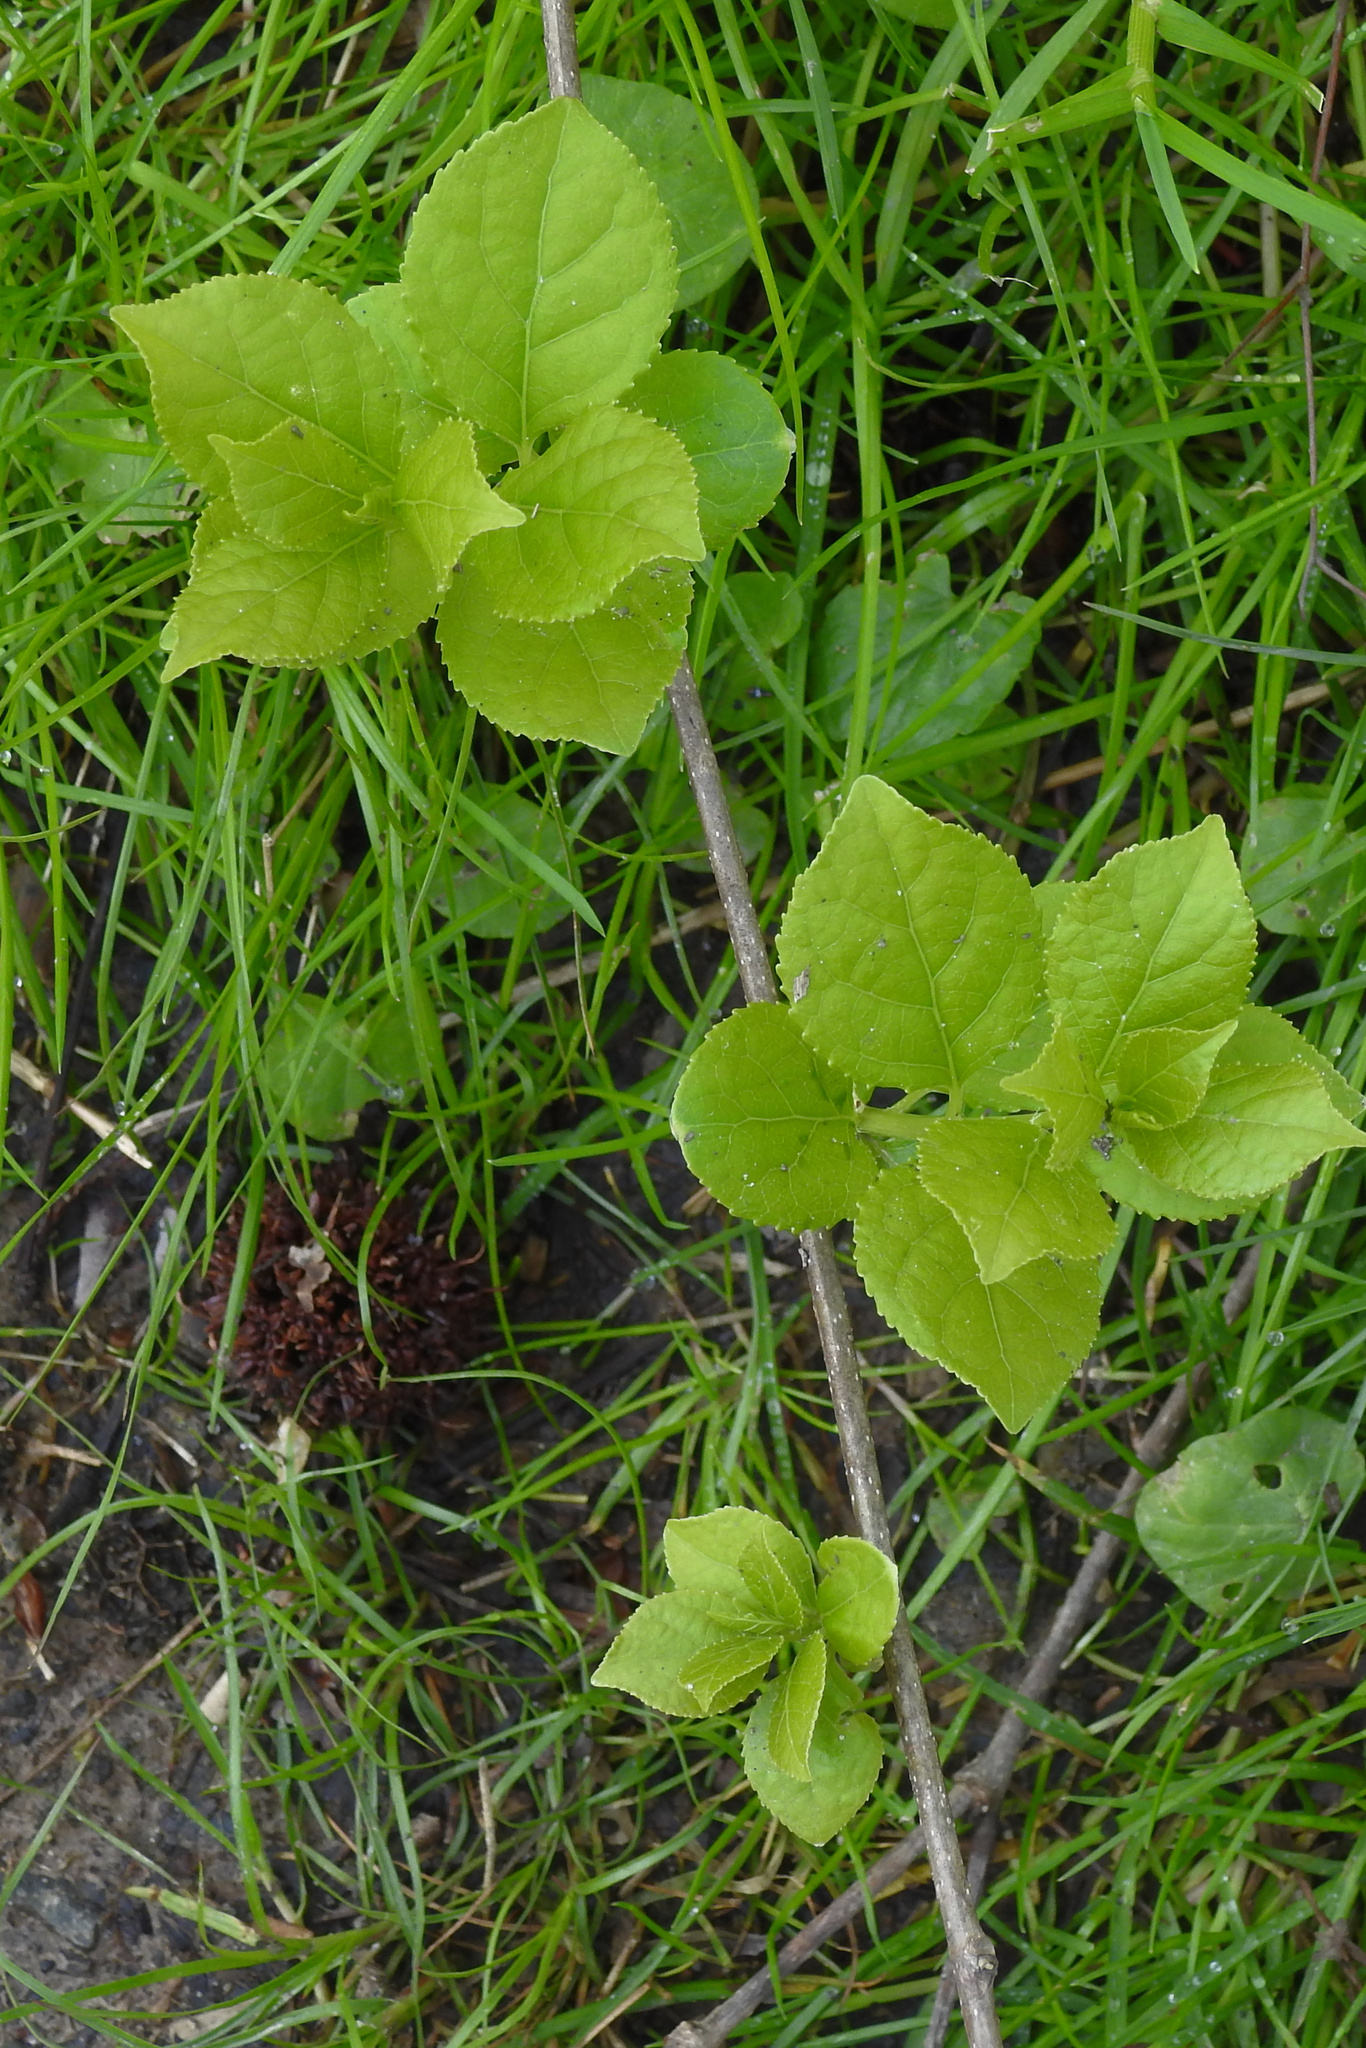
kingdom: Plantae
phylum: Tracheophyta
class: Magnoliopsida
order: Celastrales
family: Celastraceae
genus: Celastrus
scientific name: Celastrus orbiculatus
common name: Oriental bittersweet
